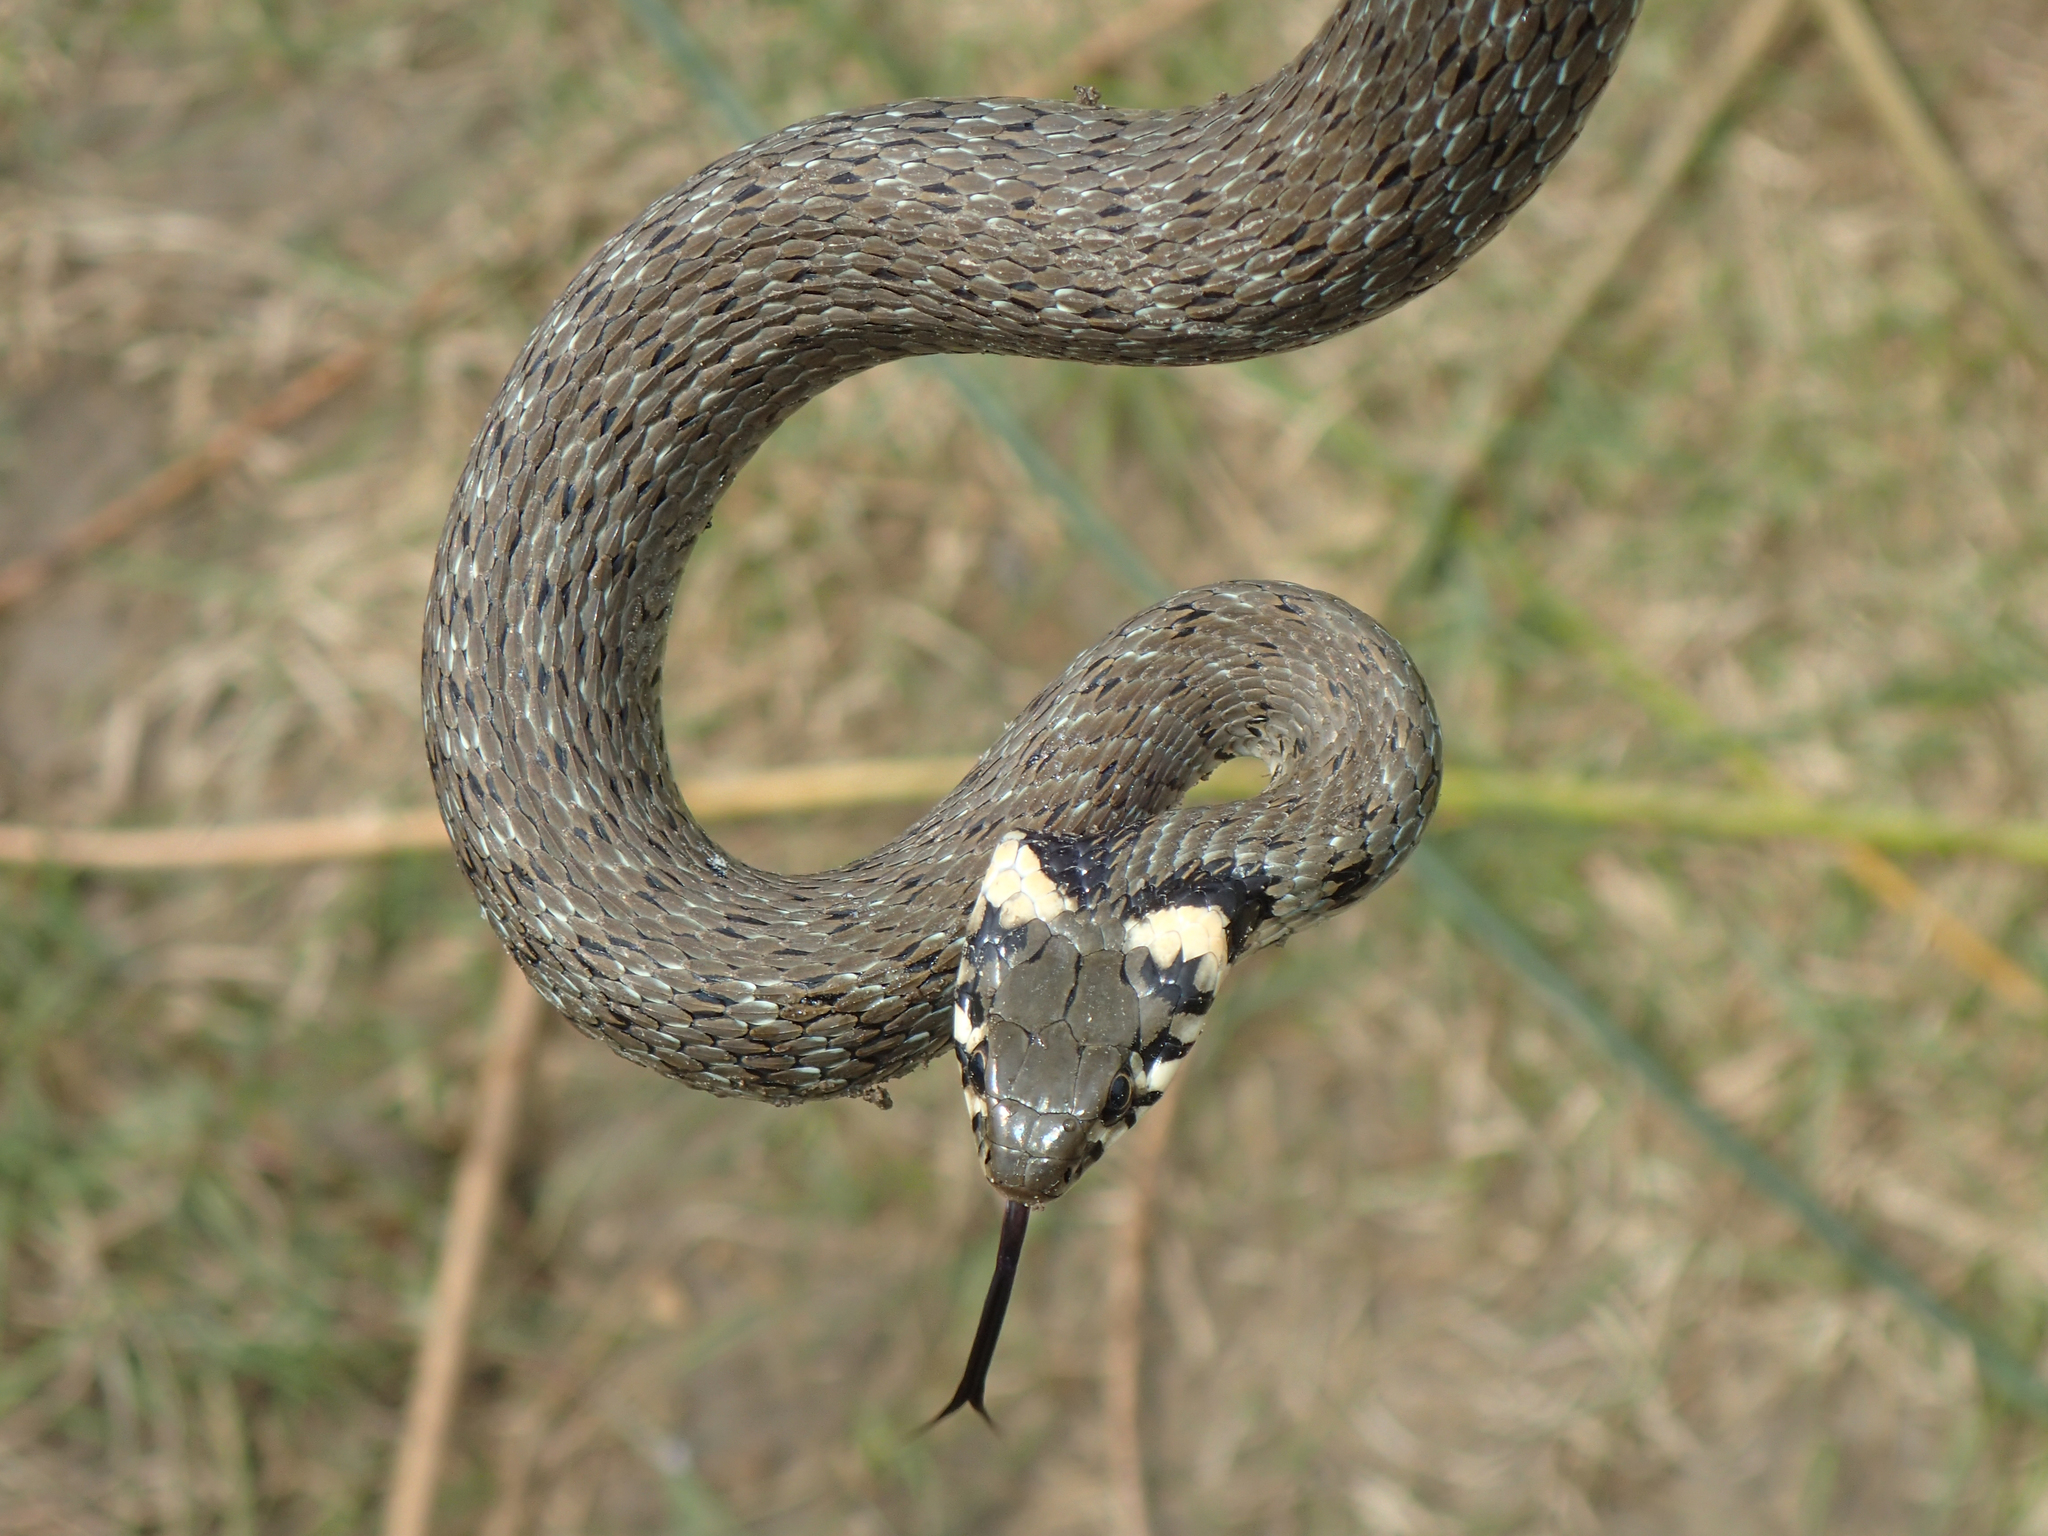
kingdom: Animalia
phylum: Chordata
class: Squamata
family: Colubridae
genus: Natrix
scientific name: Natrix natrix
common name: Grass snake
